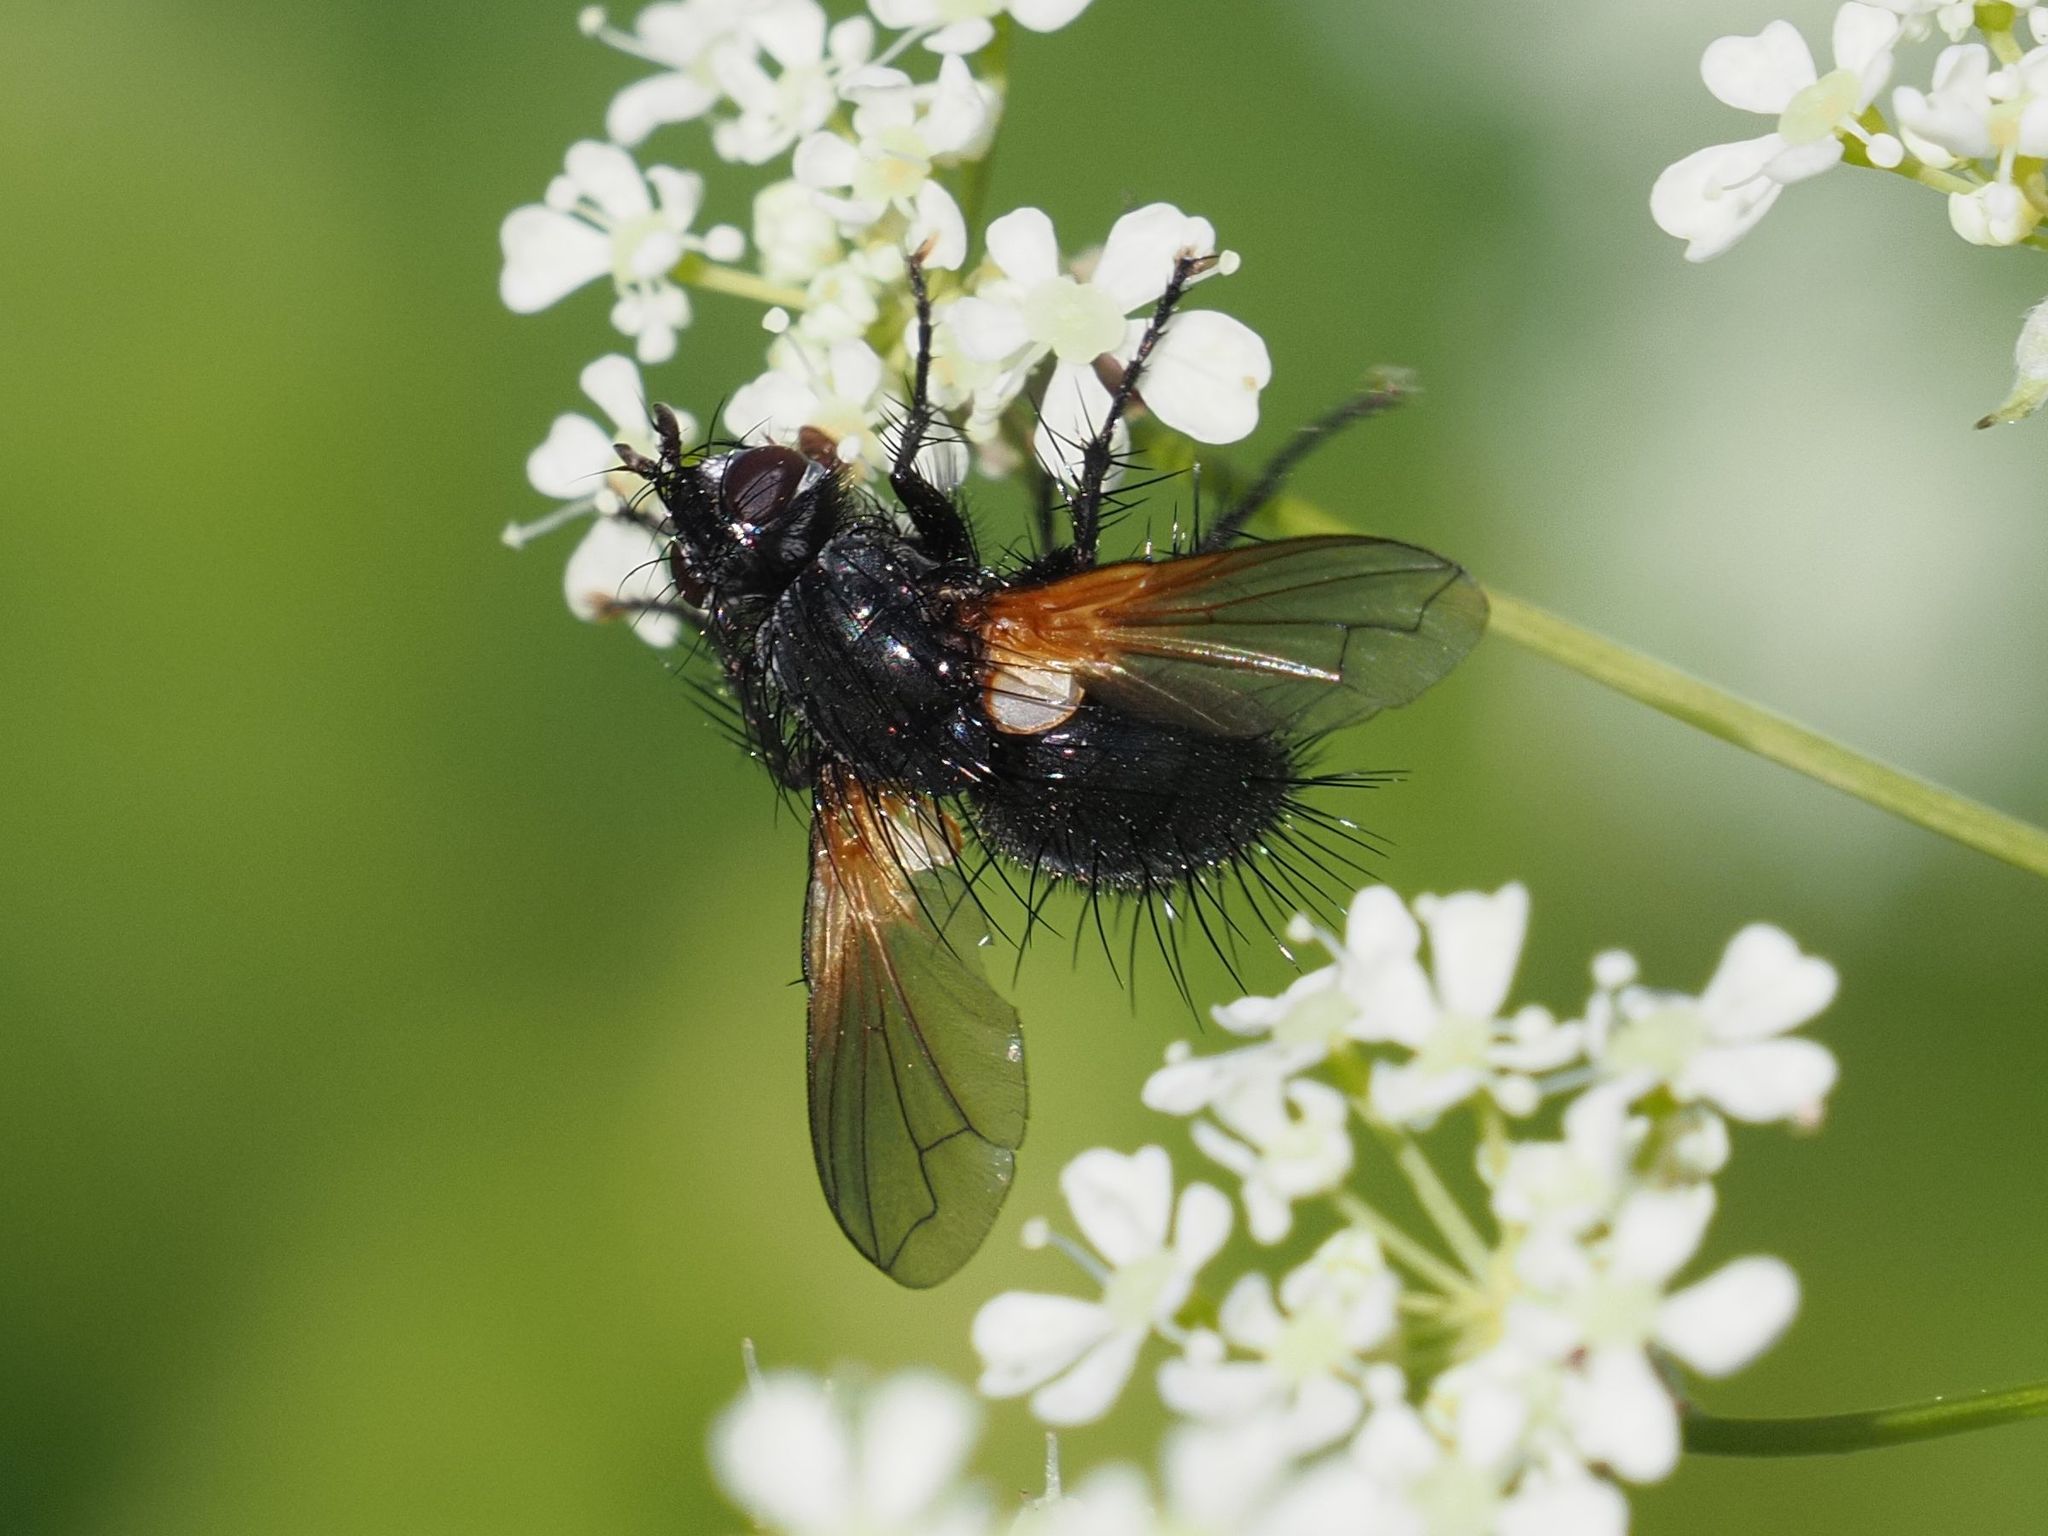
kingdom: Animalia
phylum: Arthropoda
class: Insecta
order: Diptera
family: Tachinidae
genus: Zophomyia
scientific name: Zophomyia temula
